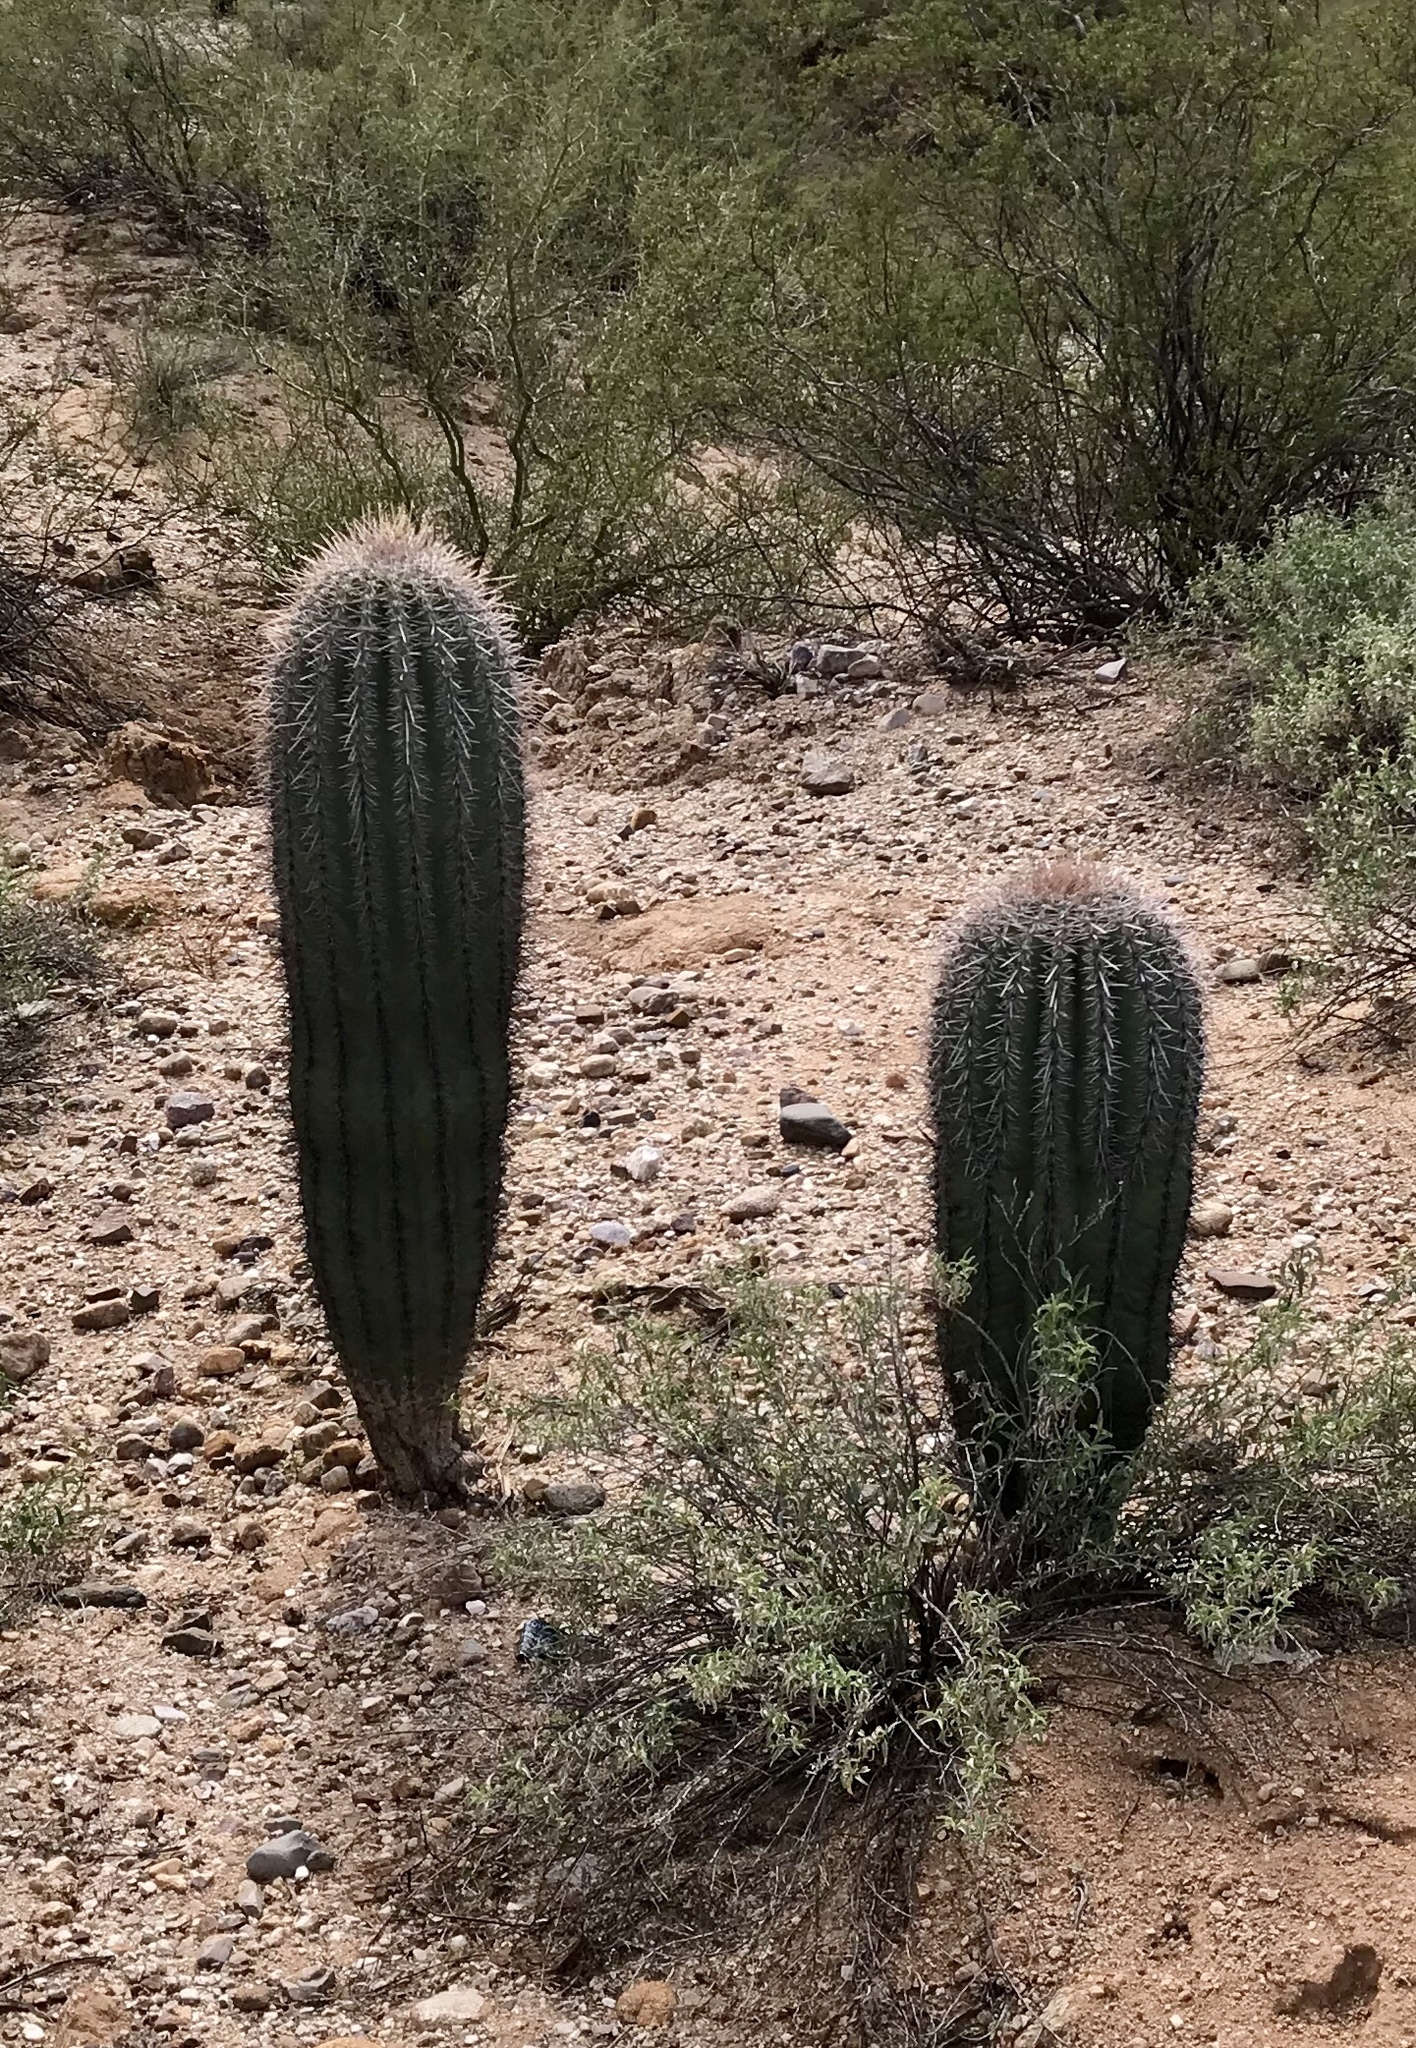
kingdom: Plantae
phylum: Tracheophyta
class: Magnoliopsida
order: Caryophyllales
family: Cactaceae
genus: Carnegiea
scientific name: Carnegiea gigantea
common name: Saguaro
